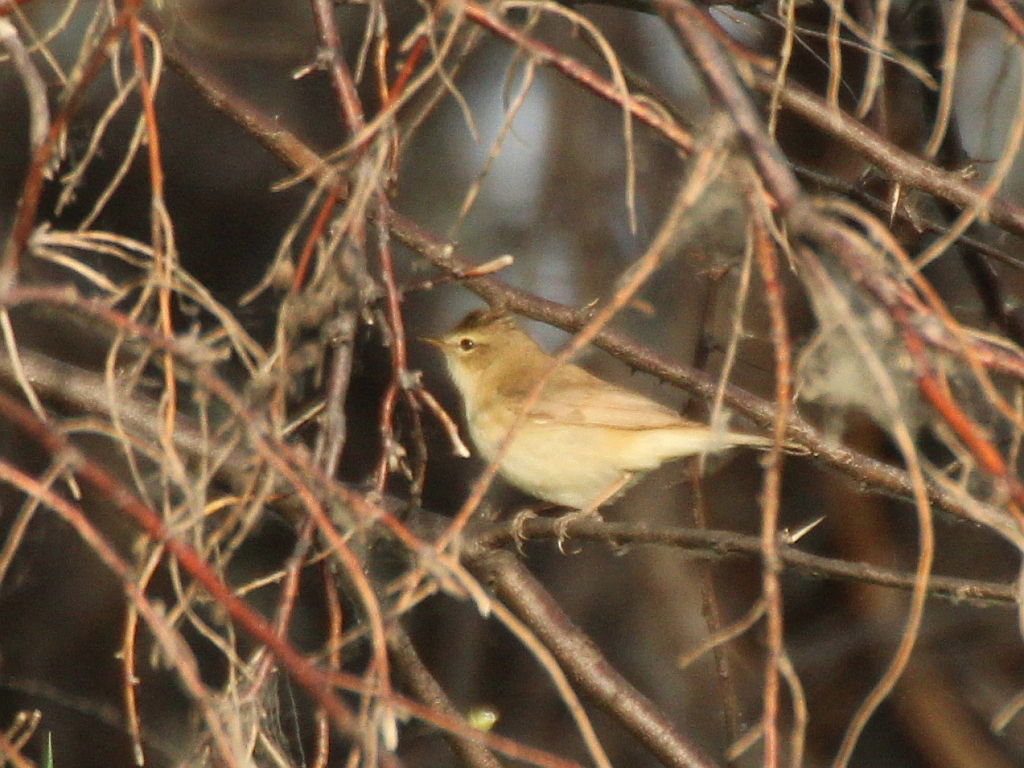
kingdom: Animalia
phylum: Chordata
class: Aves
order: Passeriformes
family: Acrocephalidae
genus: Iduna
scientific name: Iduna caligata
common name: Booted warbler
